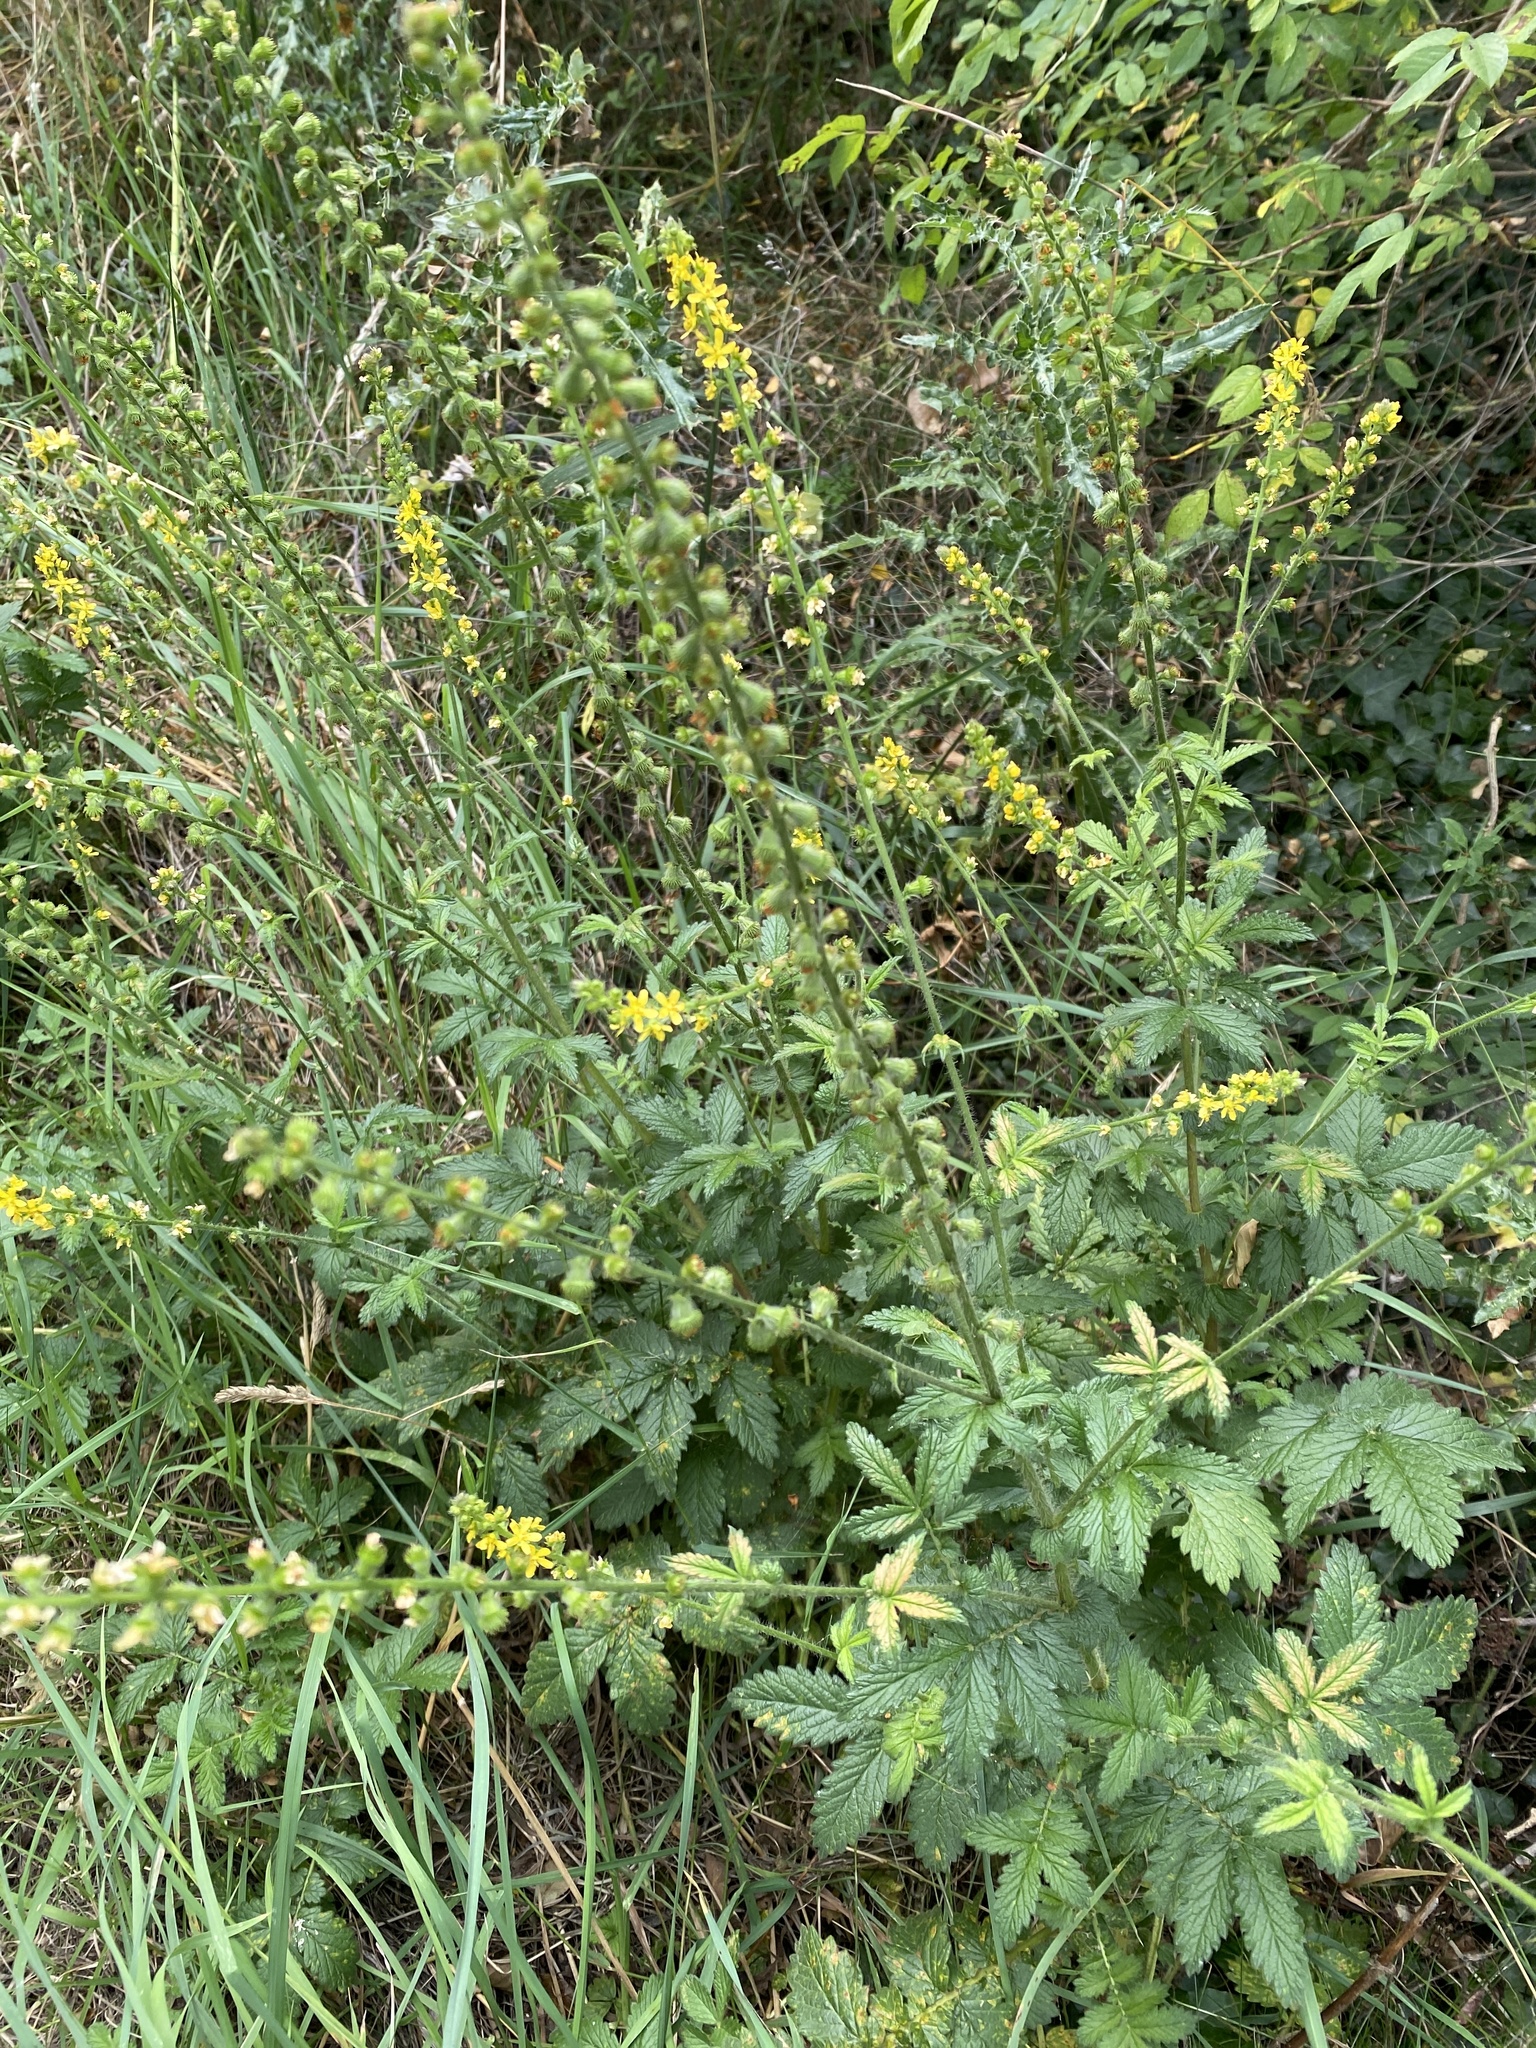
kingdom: Plantae
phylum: Tracheophyta
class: Magnoliopsida
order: Rosales
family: Rosaceae
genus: Agrimonia
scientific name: Agrimonia eupatoria
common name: Agrimony
